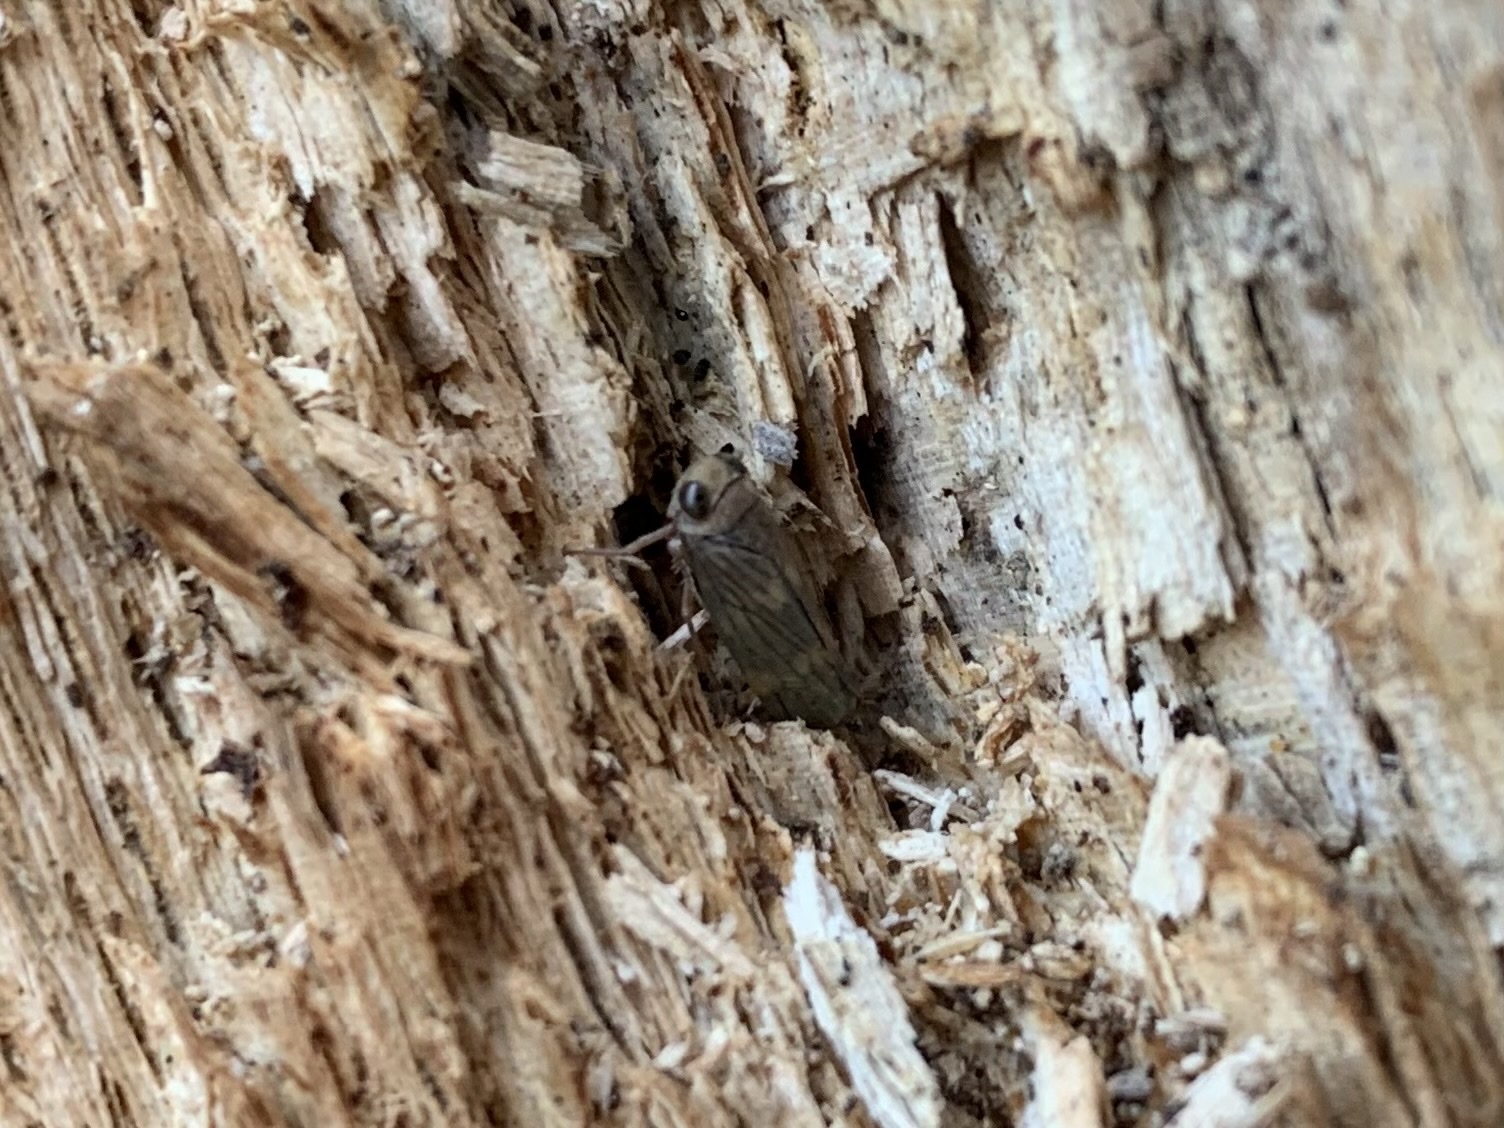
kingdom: Animalia
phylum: Arthropoda
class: Insecta
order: Hemiptera
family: Cicadellidae
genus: Jikradia
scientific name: Jikradia olitoria
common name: Coppery leafhopper
